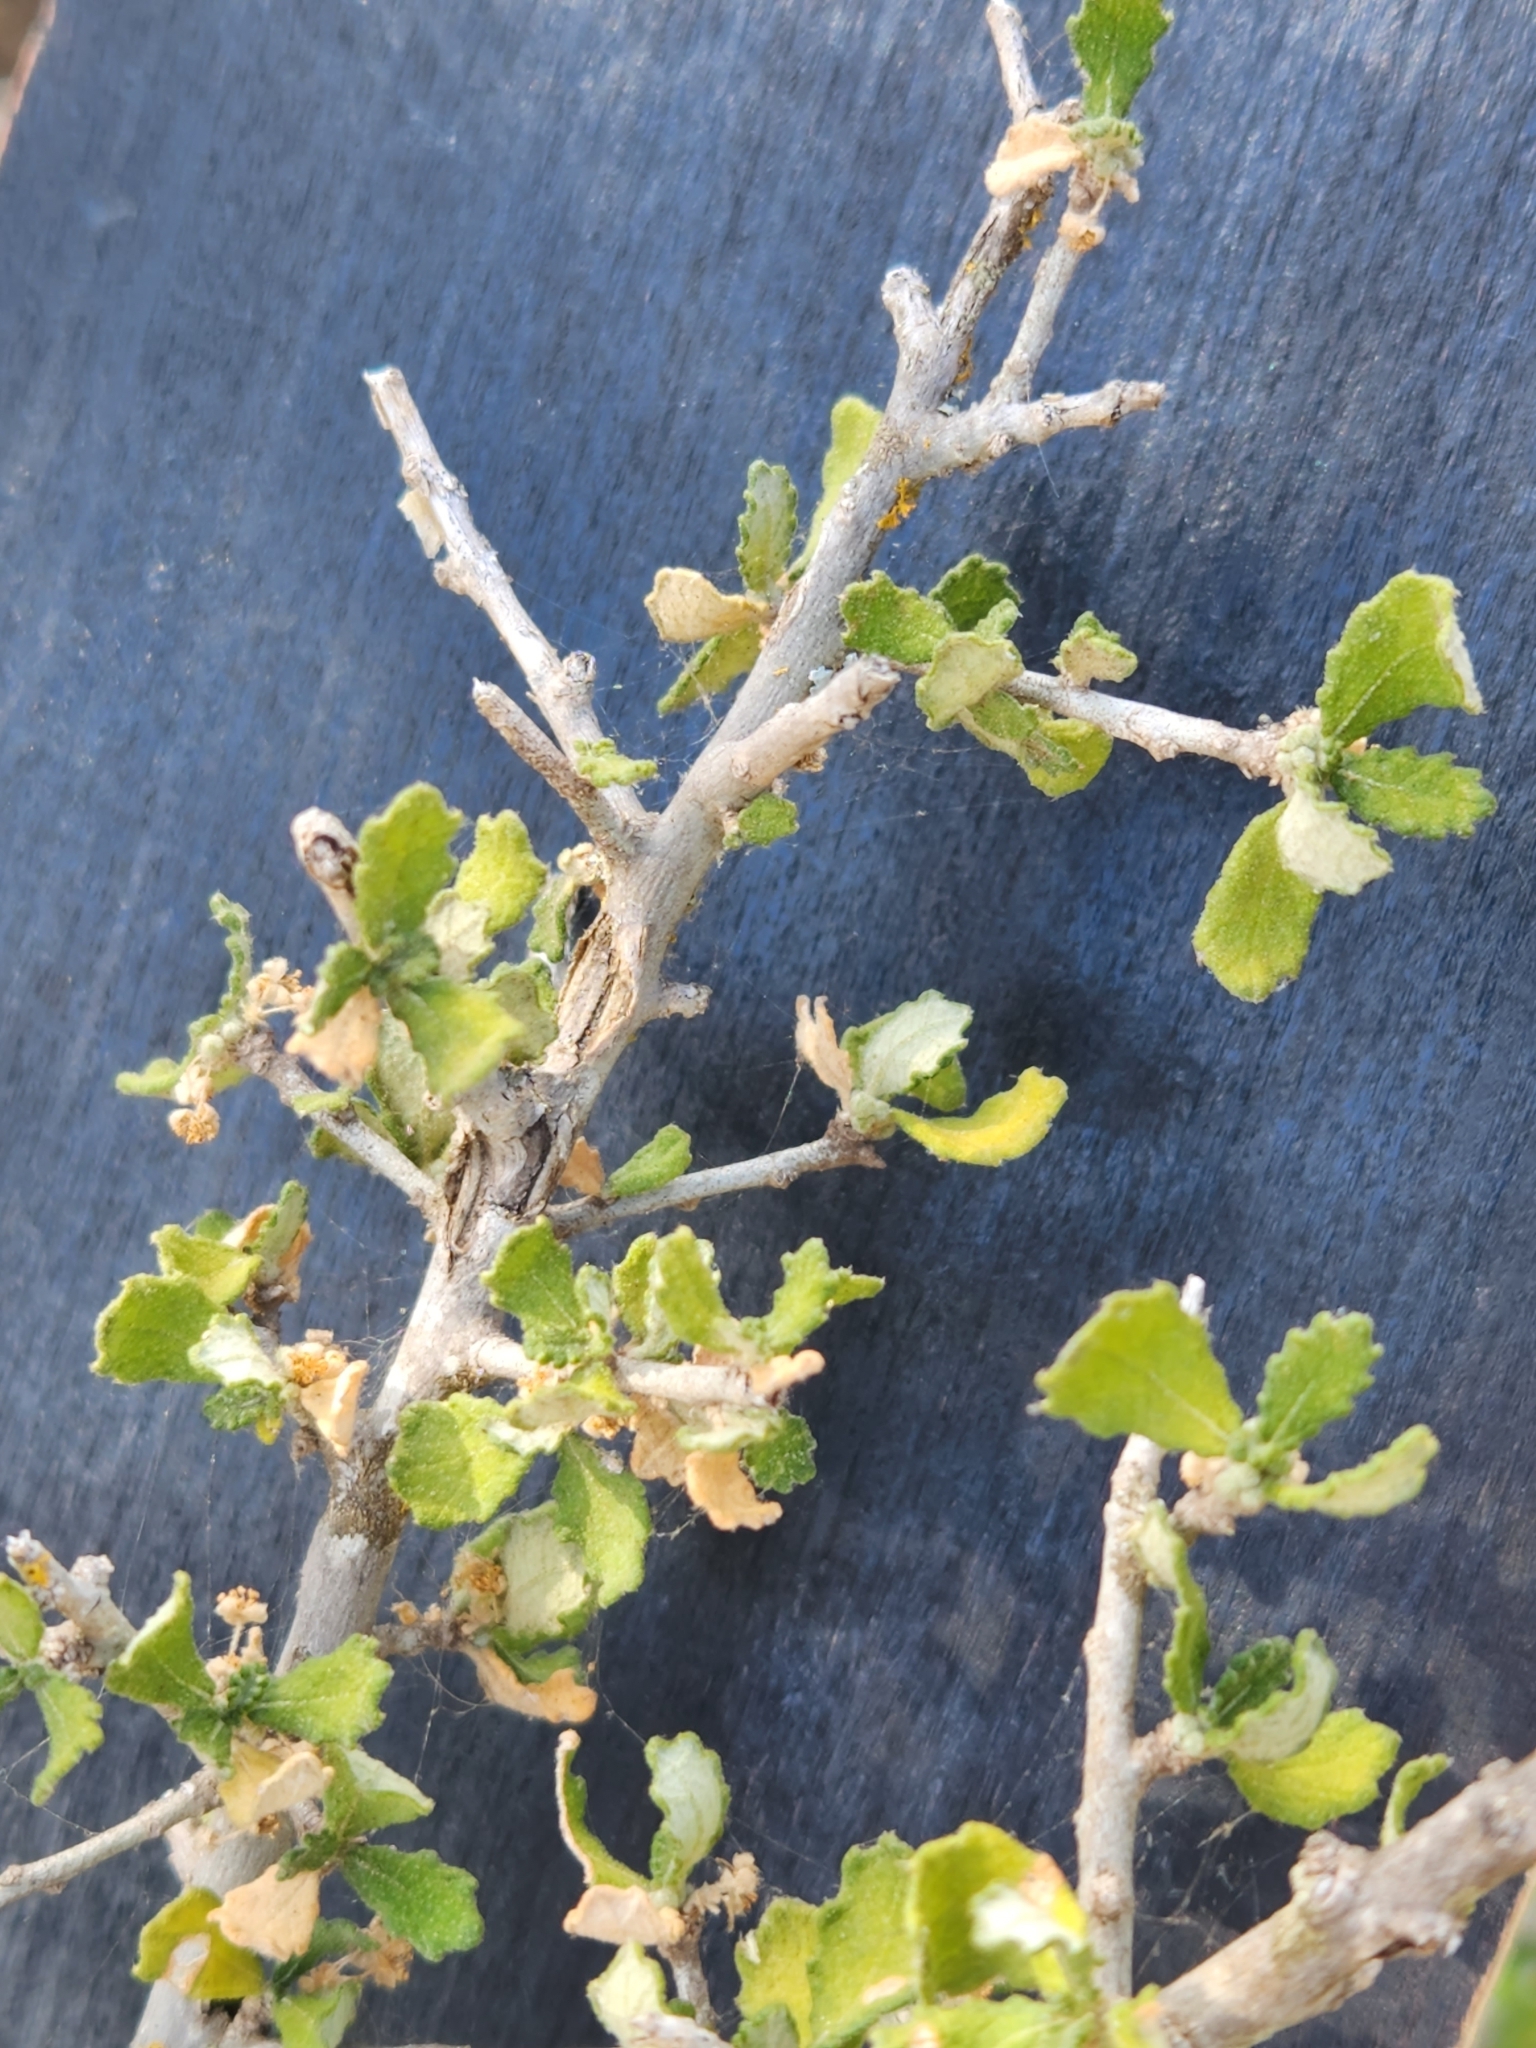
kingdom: Plantae
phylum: Tracheophyta
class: Magnoliopsida
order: Malpighiales
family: Euphorbiaceae
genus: Bernardia
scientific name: Bernardia myricifolia
